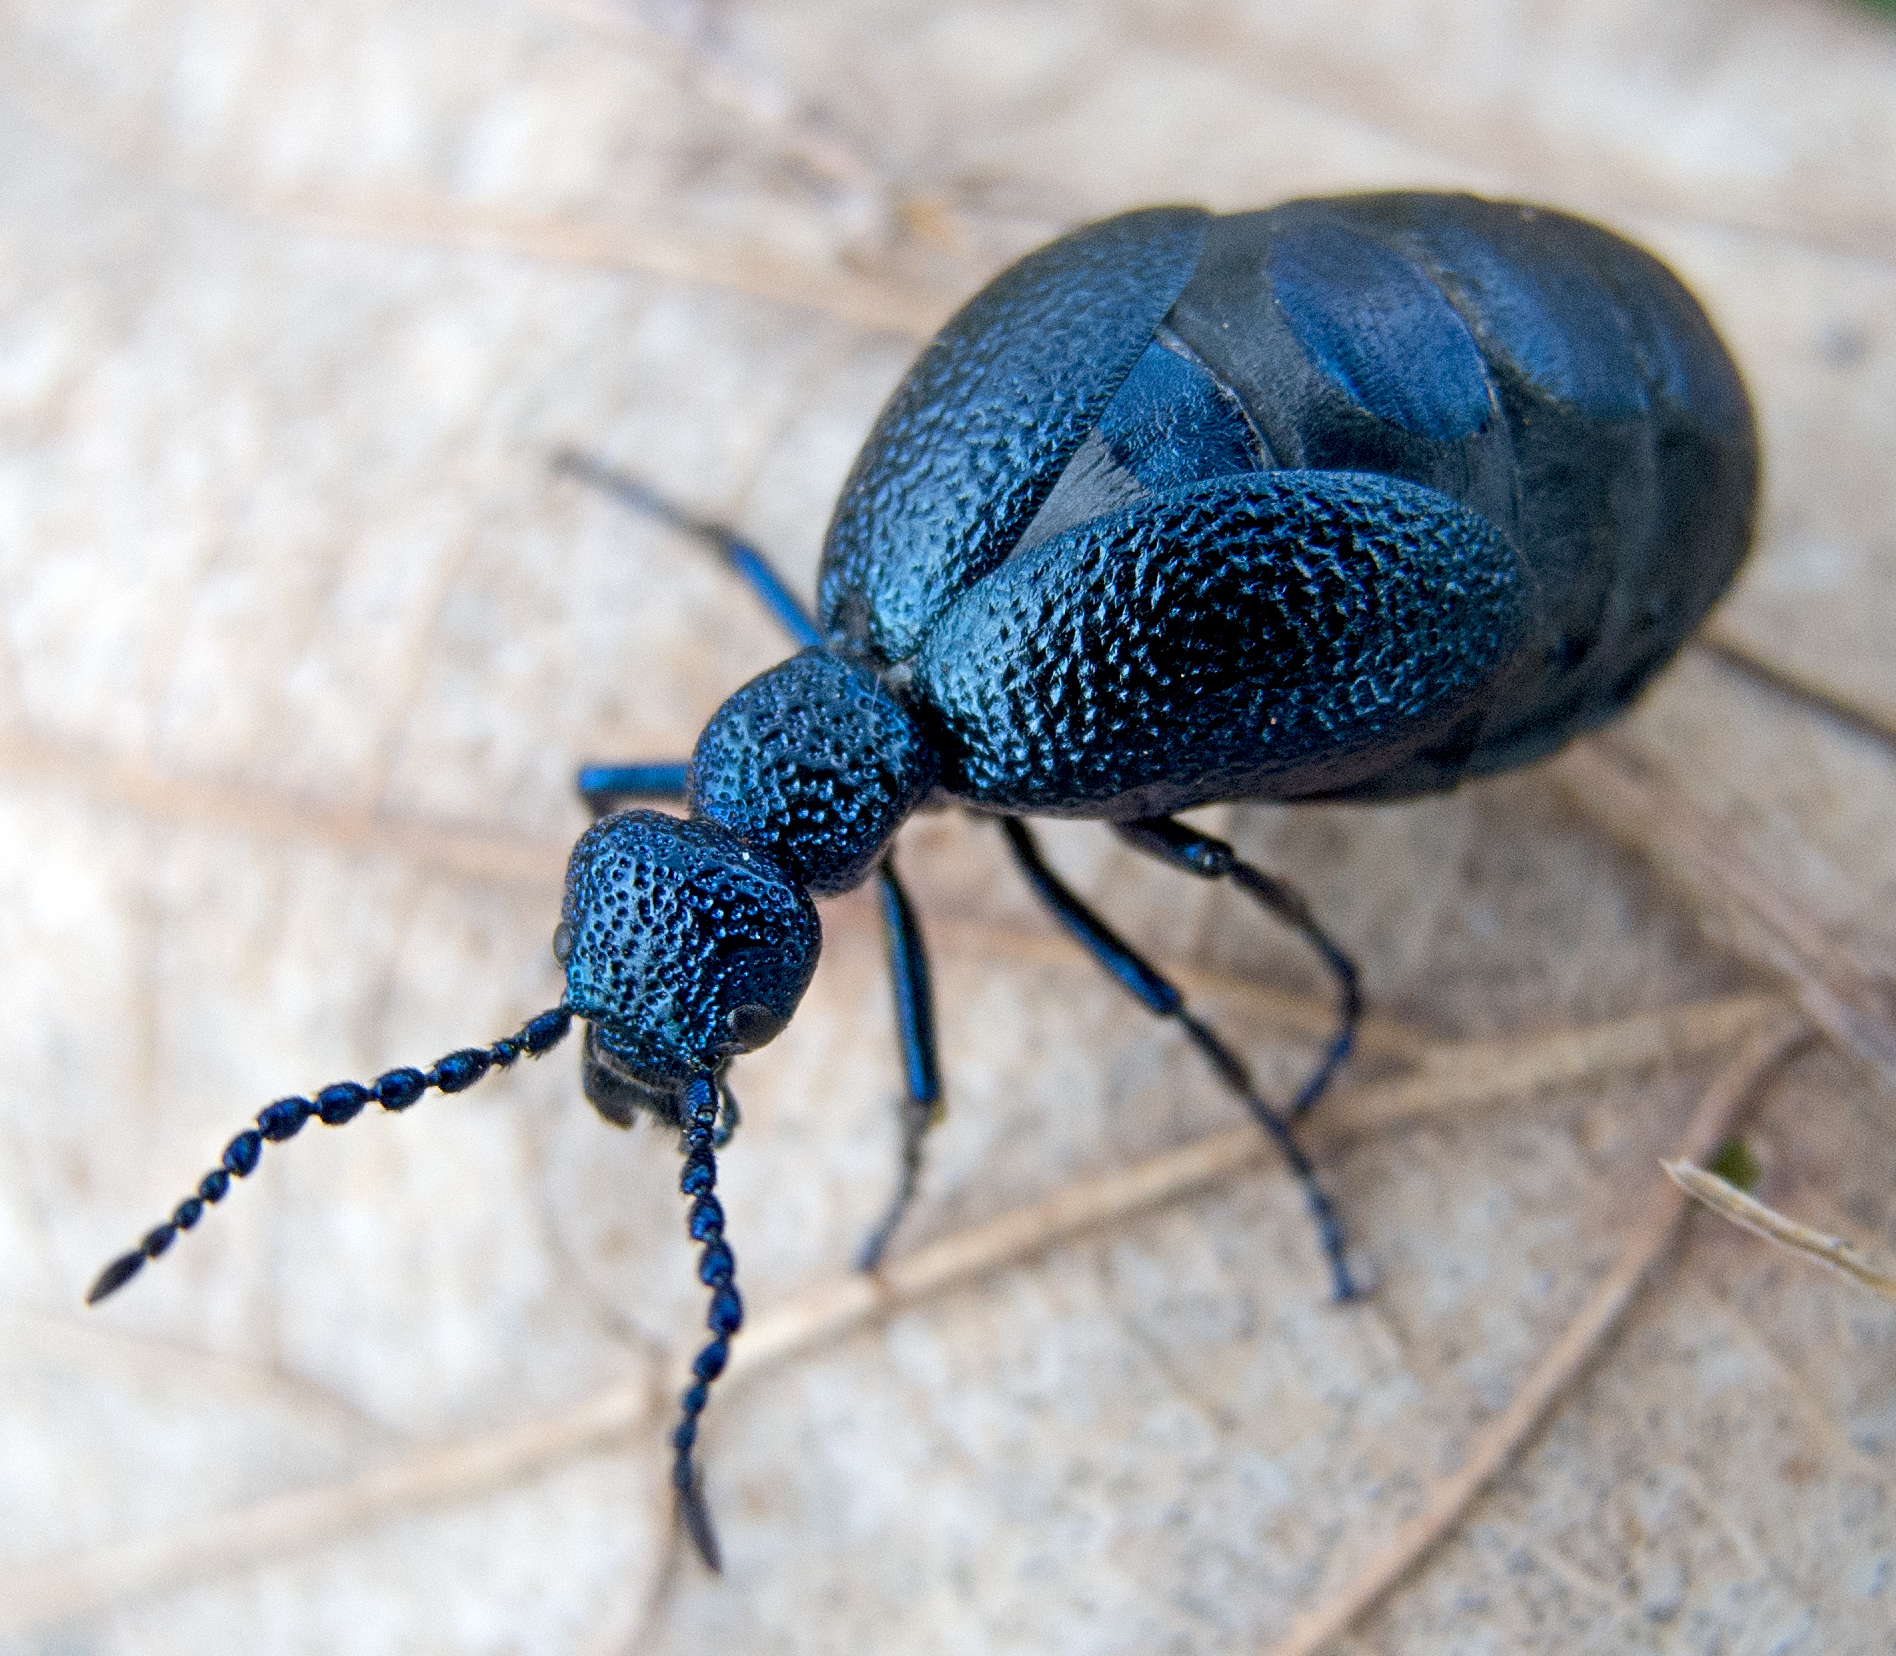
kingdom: Animalia
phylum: Arthropoda
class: Insecta
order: Coleoptera
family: Meloidae
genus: Meloe
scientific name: Meloe proscarabaeus
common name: Black oil-beetle
